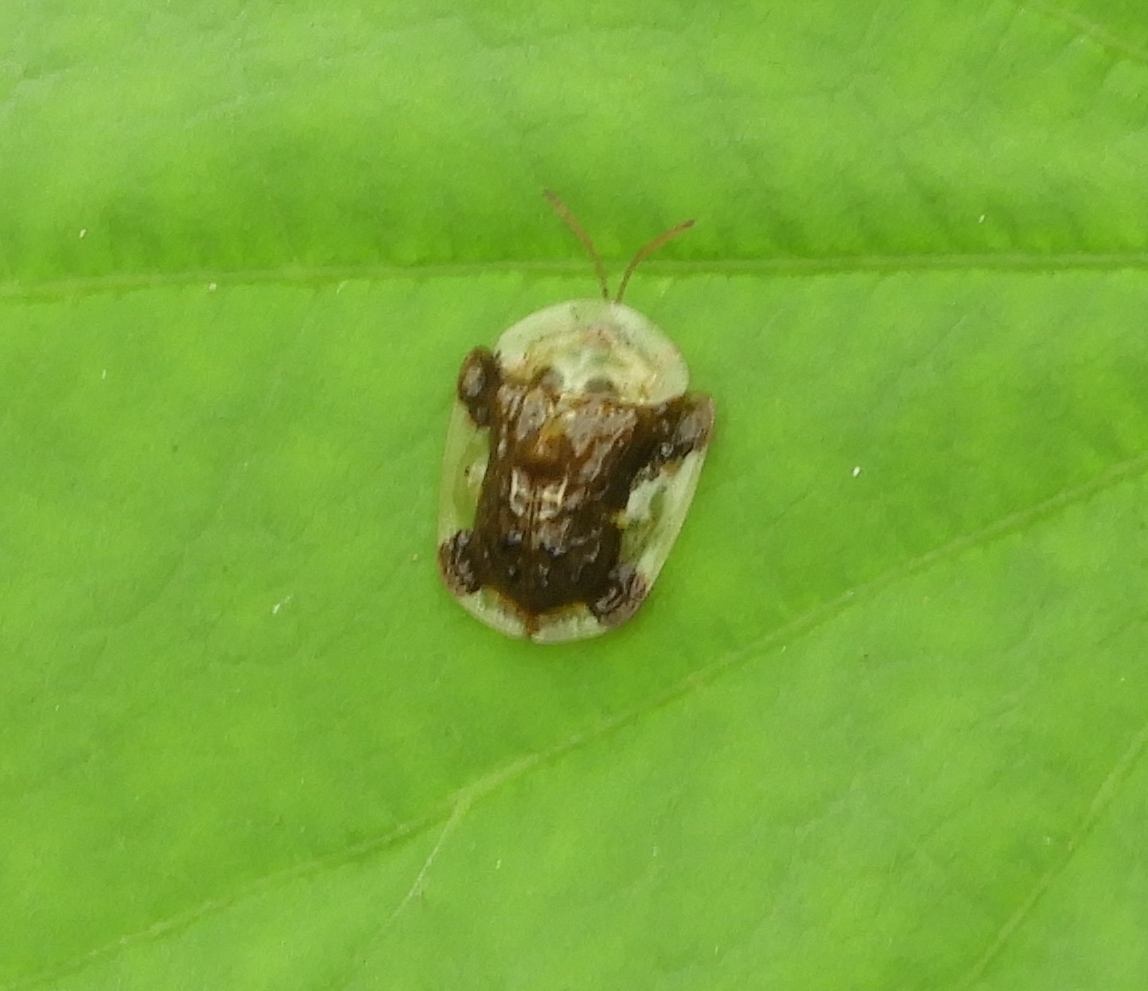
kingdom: Animalia
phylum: Arthropoda
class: Insecta
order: Coleoptera
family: Chrysomelidae
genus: Helocassis
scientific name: Helocassis testudinaria
